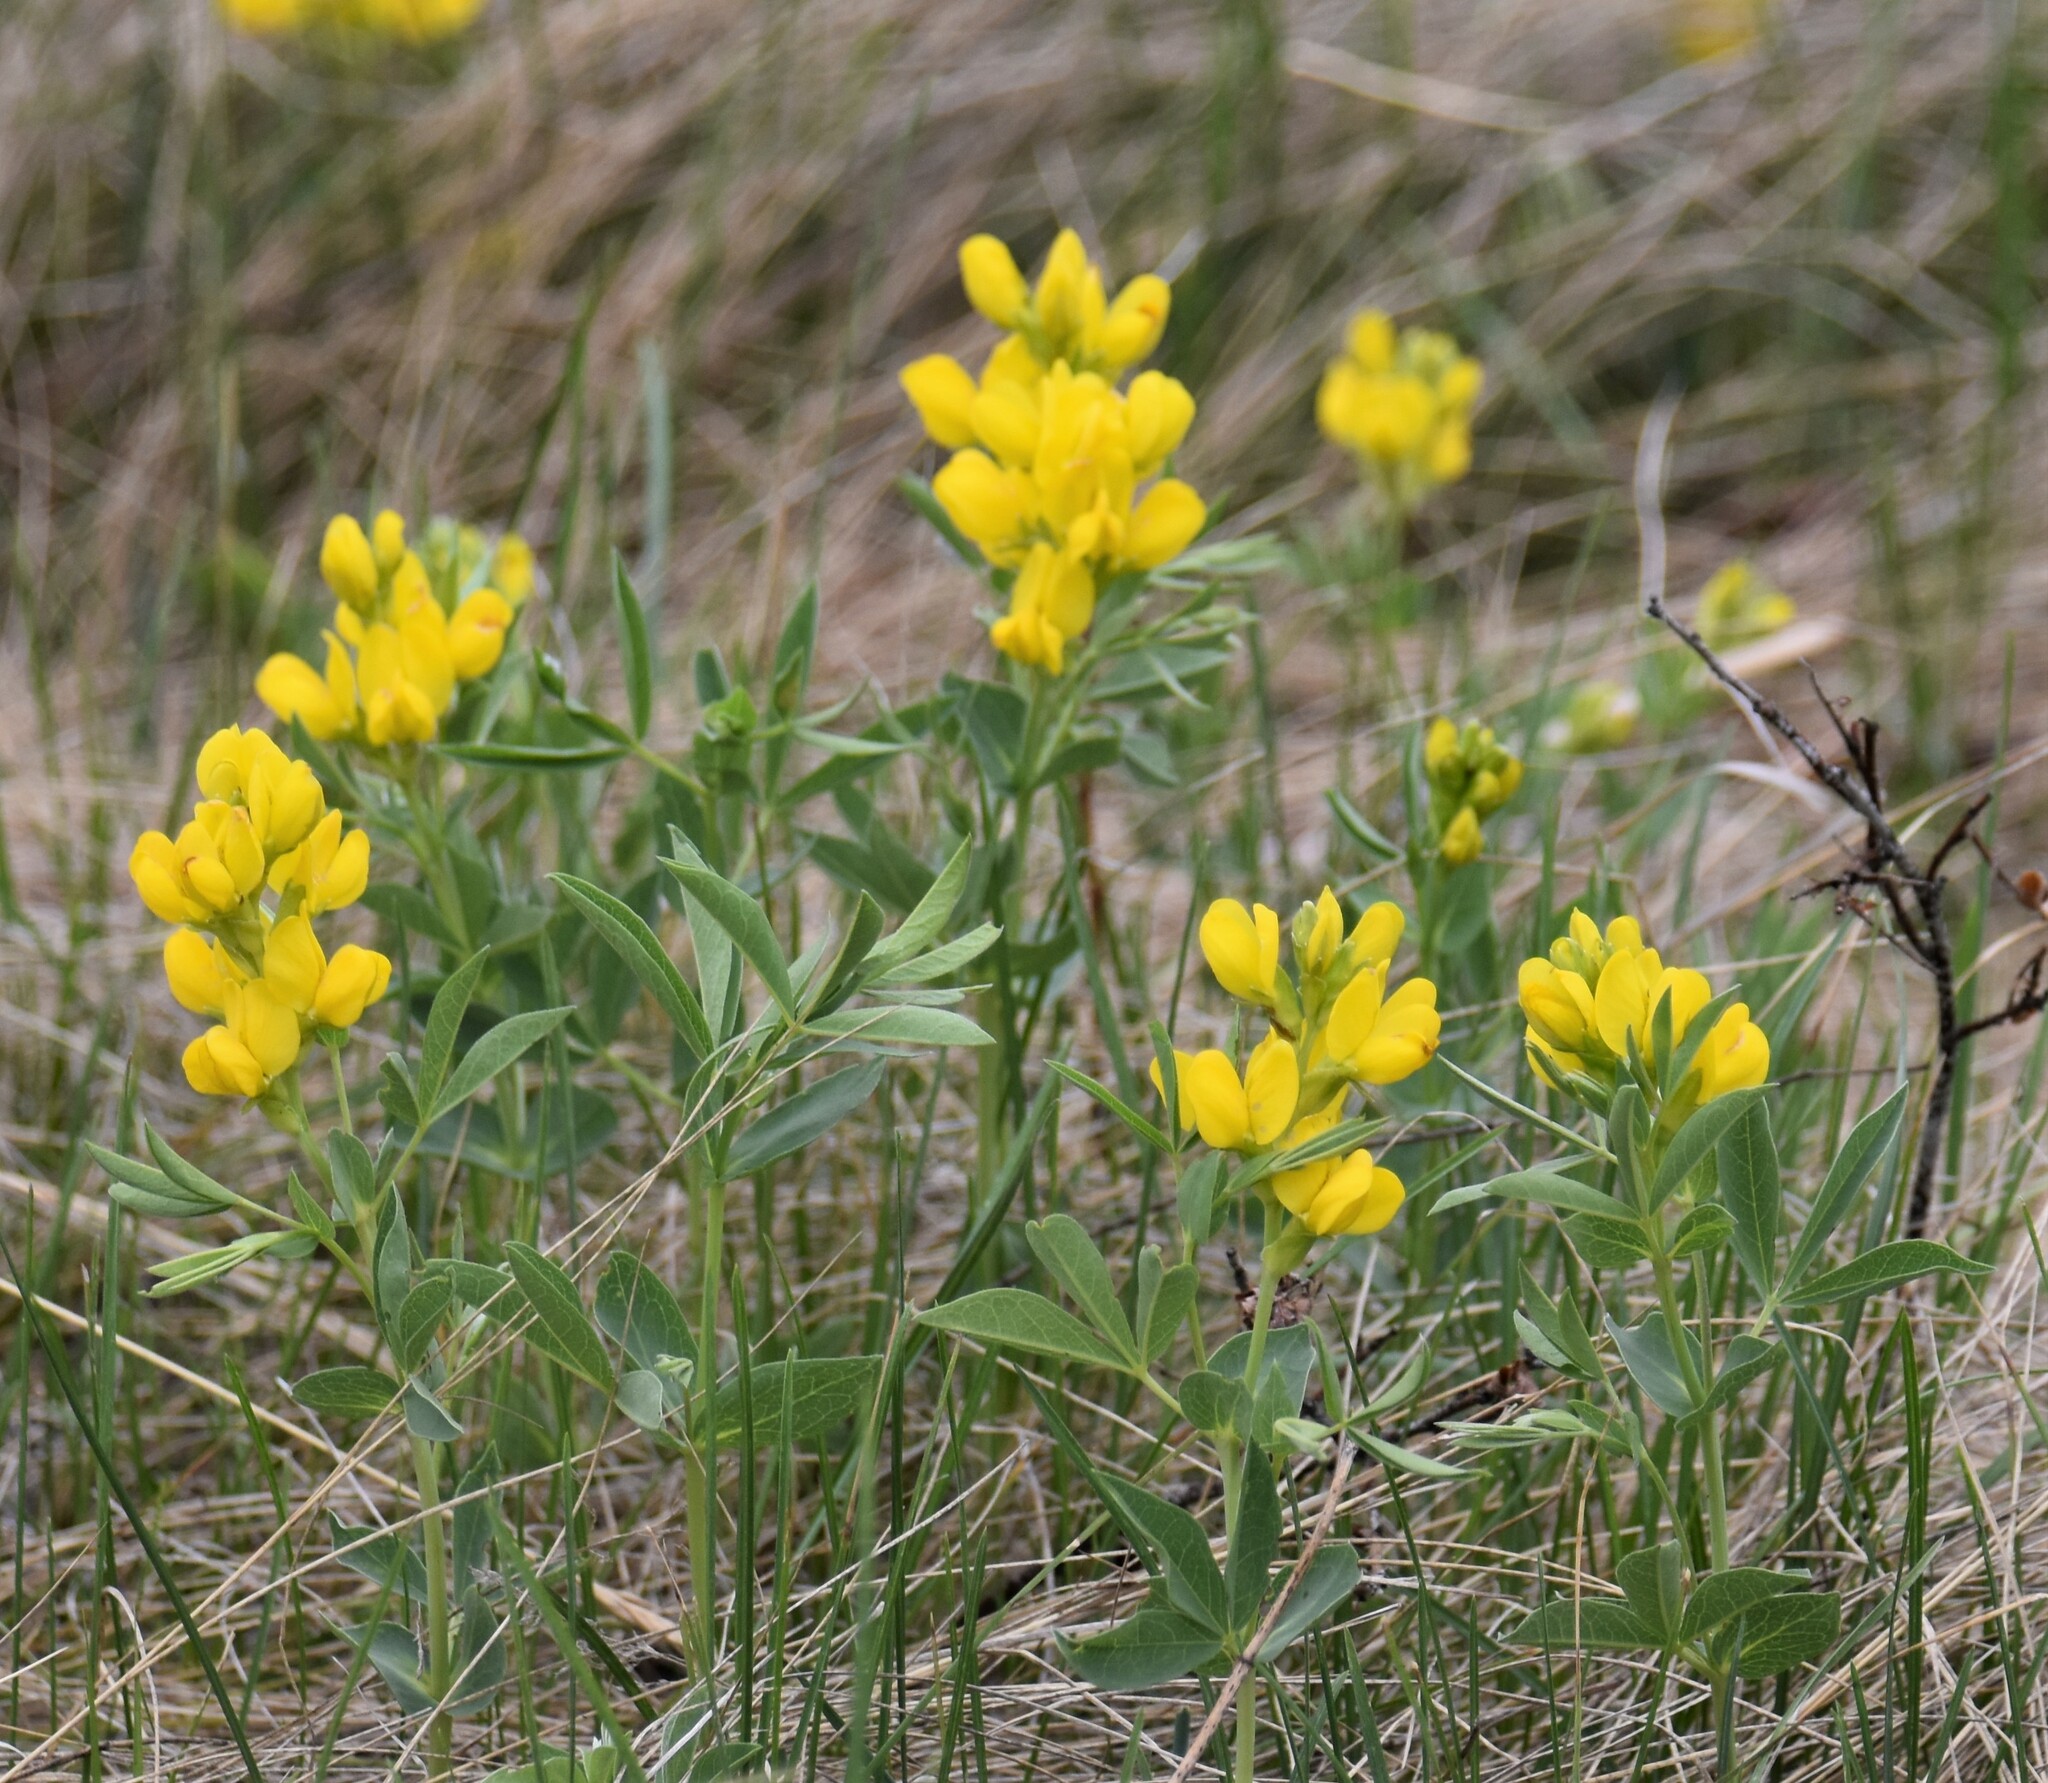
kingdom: Plantae
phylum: Tracheophyta
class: Magnoliopsida
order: Fabales
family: Fabaceae
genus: Thermopsis
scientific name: Thermopsis rhombifolia
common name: Circle-pod-pea
